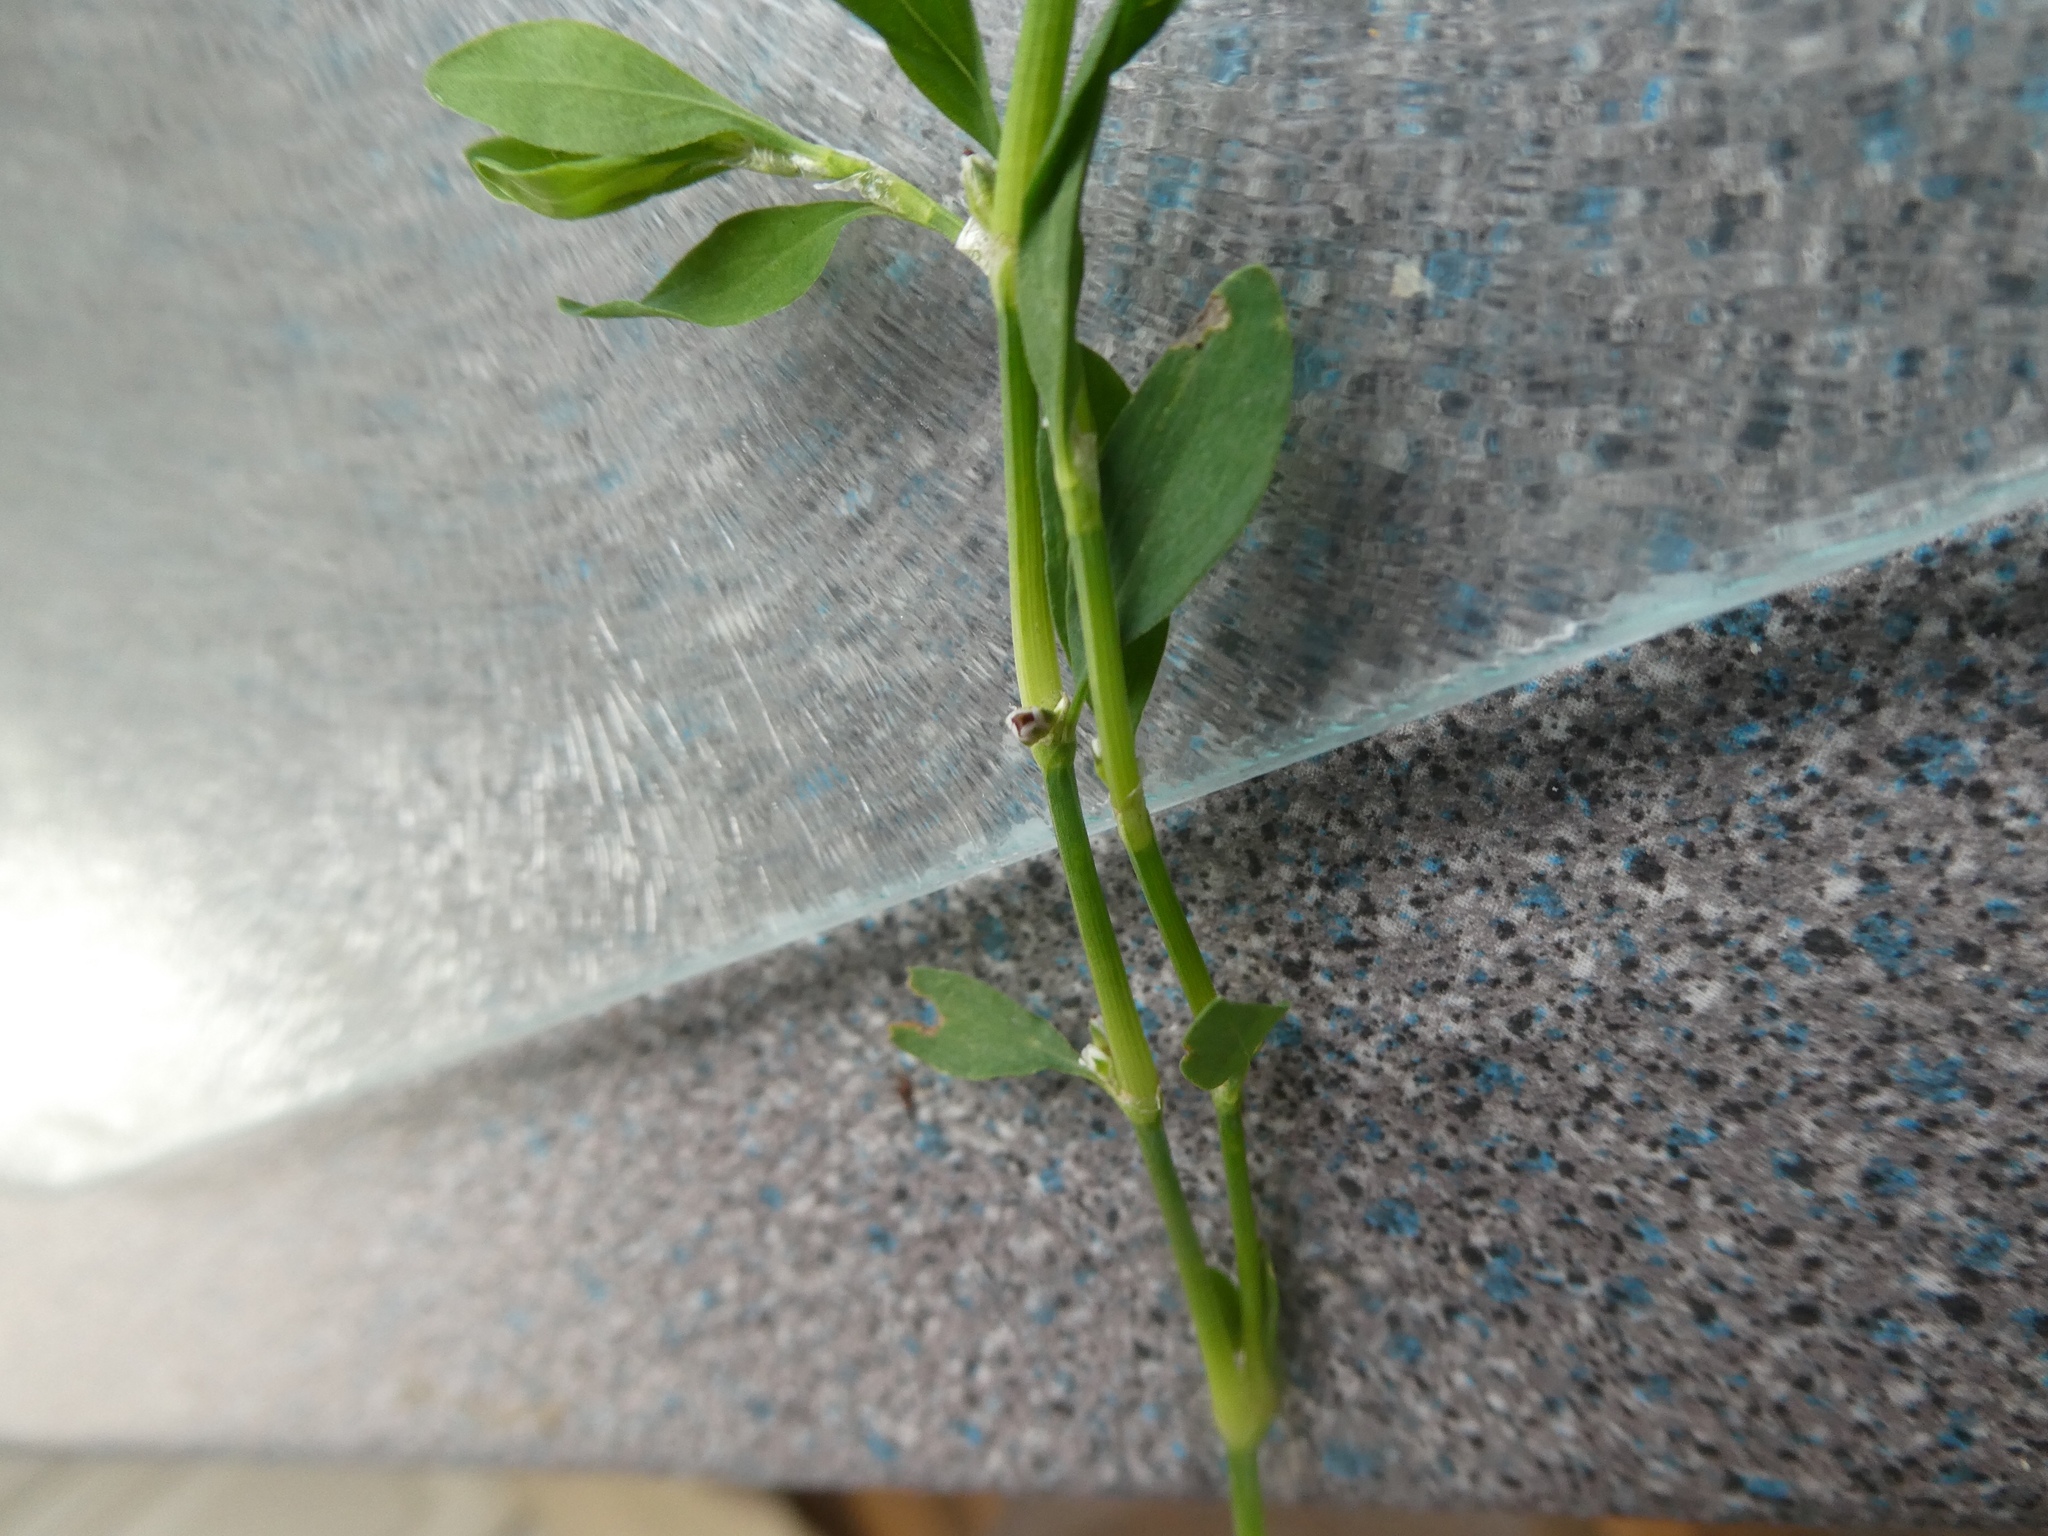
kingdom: Plantae
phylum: Tracheophyta
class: Magnoliopsida
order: Caryophyllales
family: Polygonaceae
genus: Polygonum
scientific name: Polygonum aviculare
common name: Prostrate knotweed
